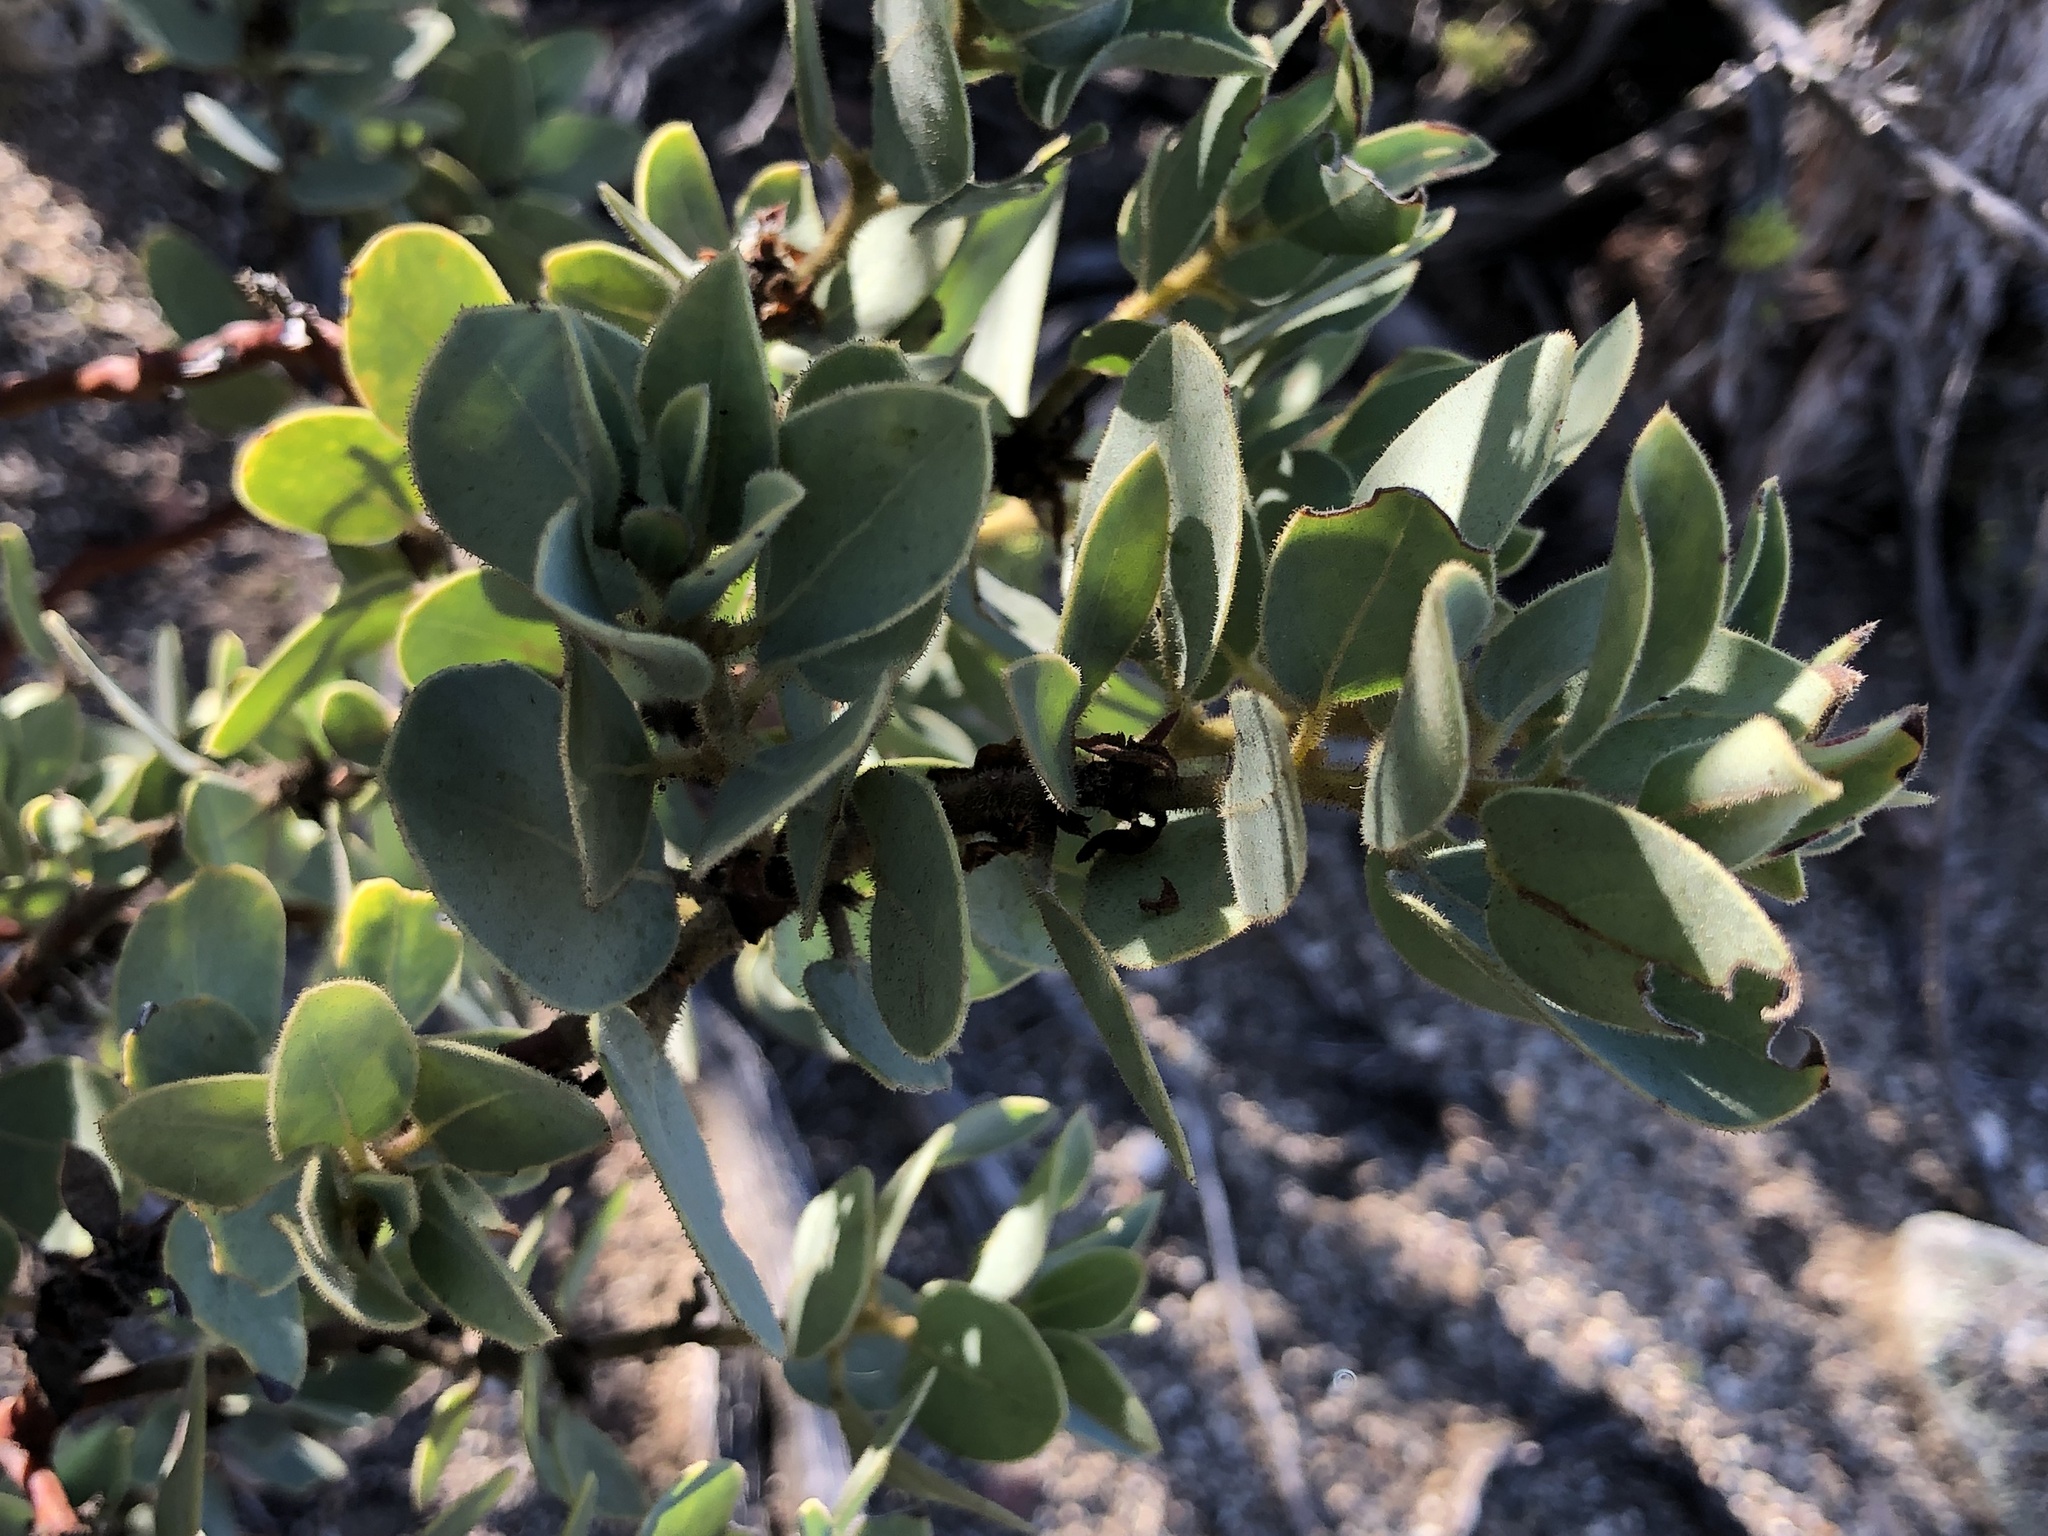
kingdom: Plantae
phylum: Tracheophyta
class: Magnoliopsida
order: Ericales
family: Ericaceae
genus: Arctostaphylos
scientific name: Arctostaphylos pringlei
